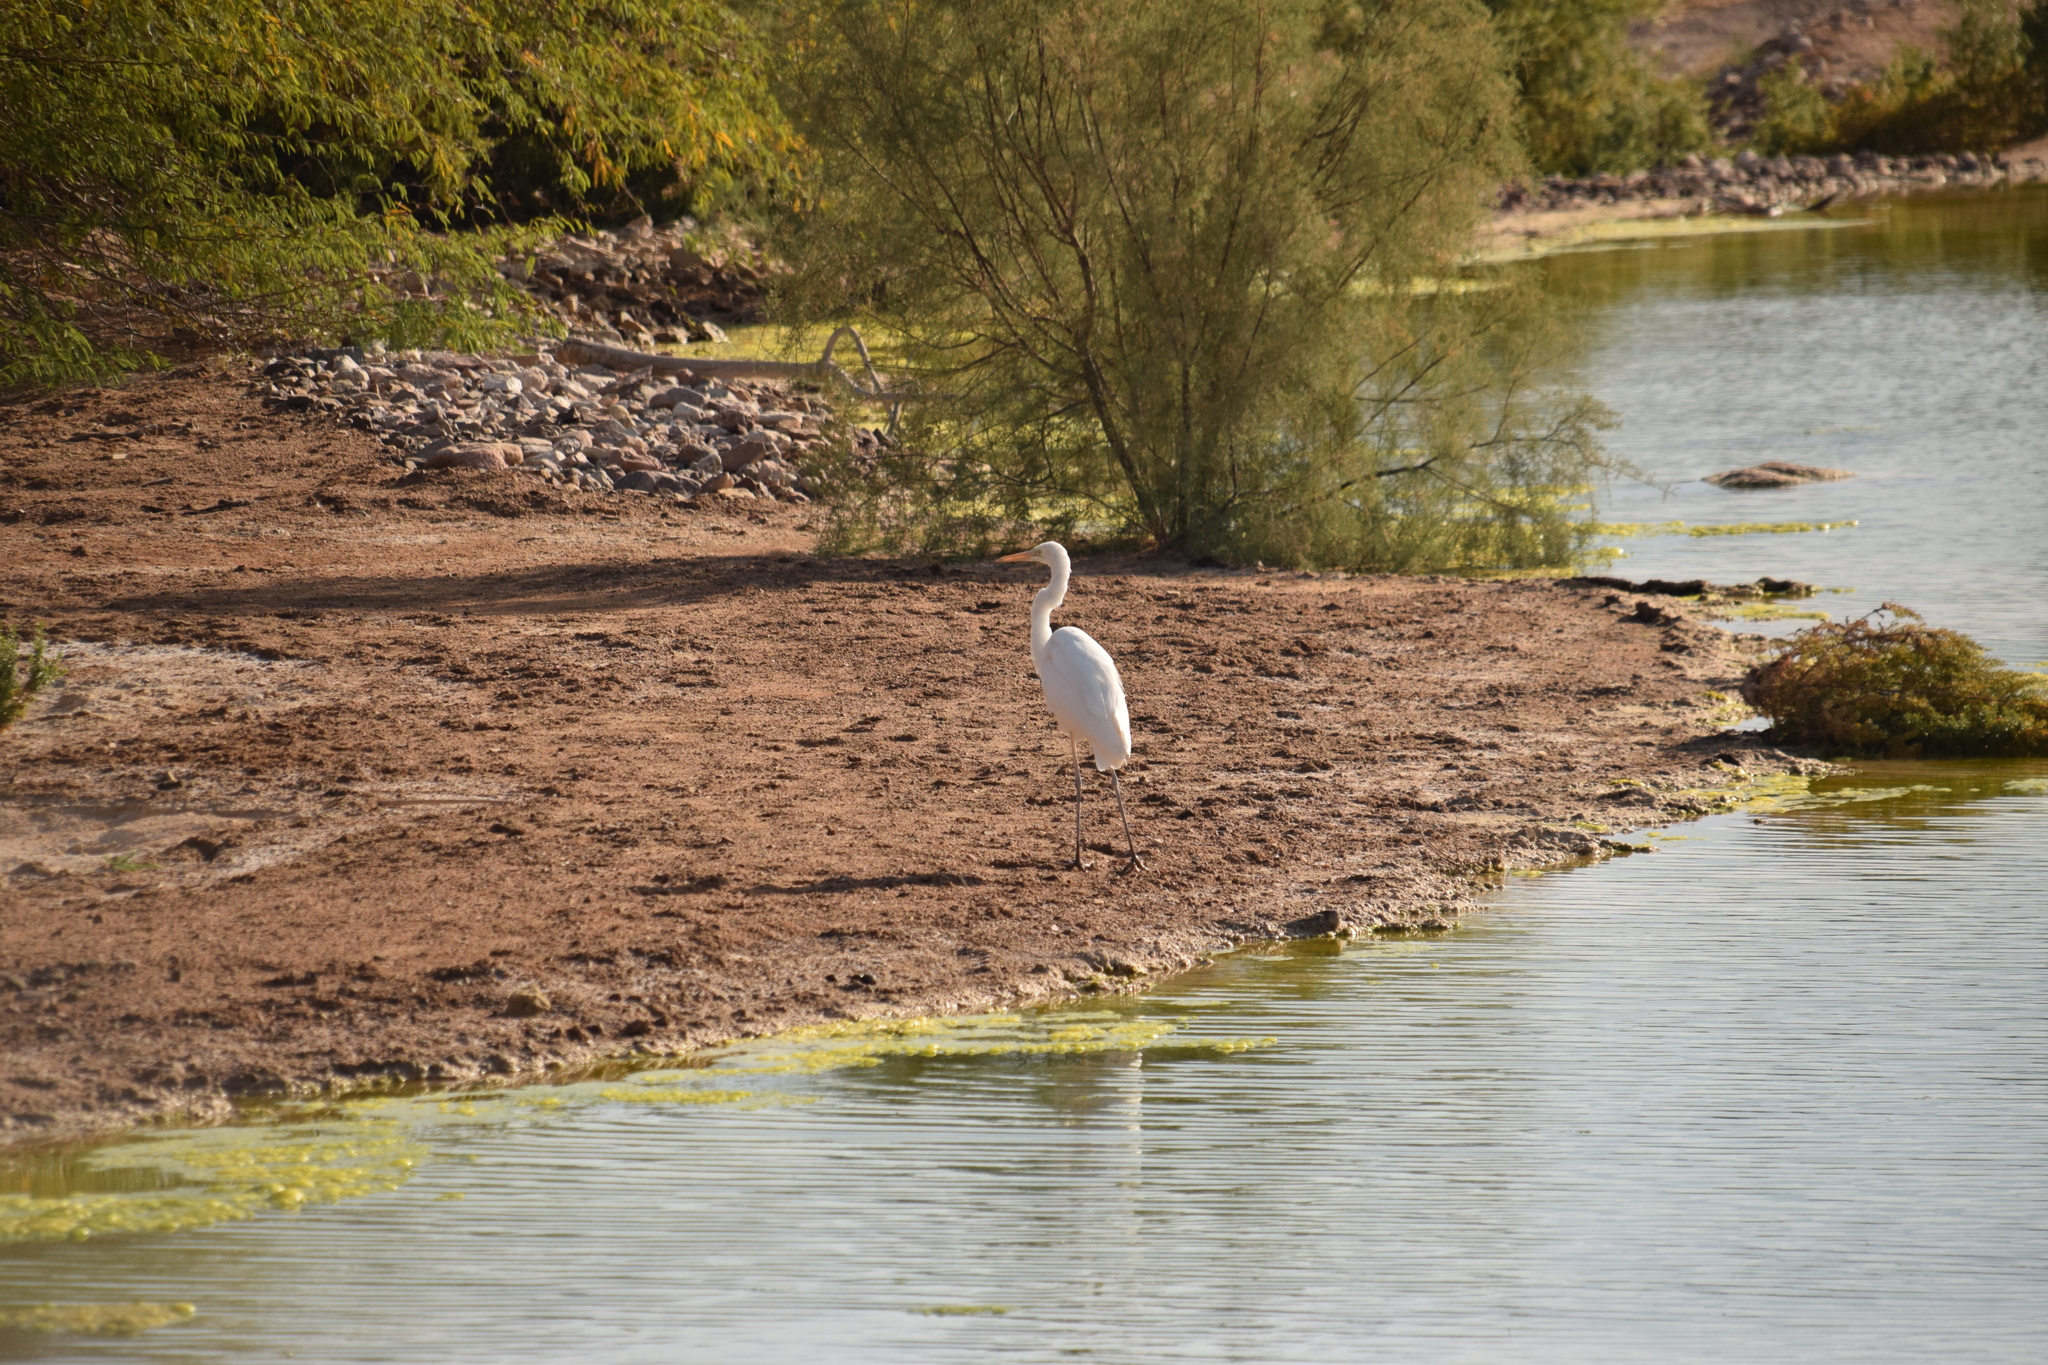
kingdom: Animalia
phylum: Chordata
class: Aves
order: Pelecaniformes
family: Ardeidae
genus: Ardea
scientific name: Ardea alba
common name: Great egret
